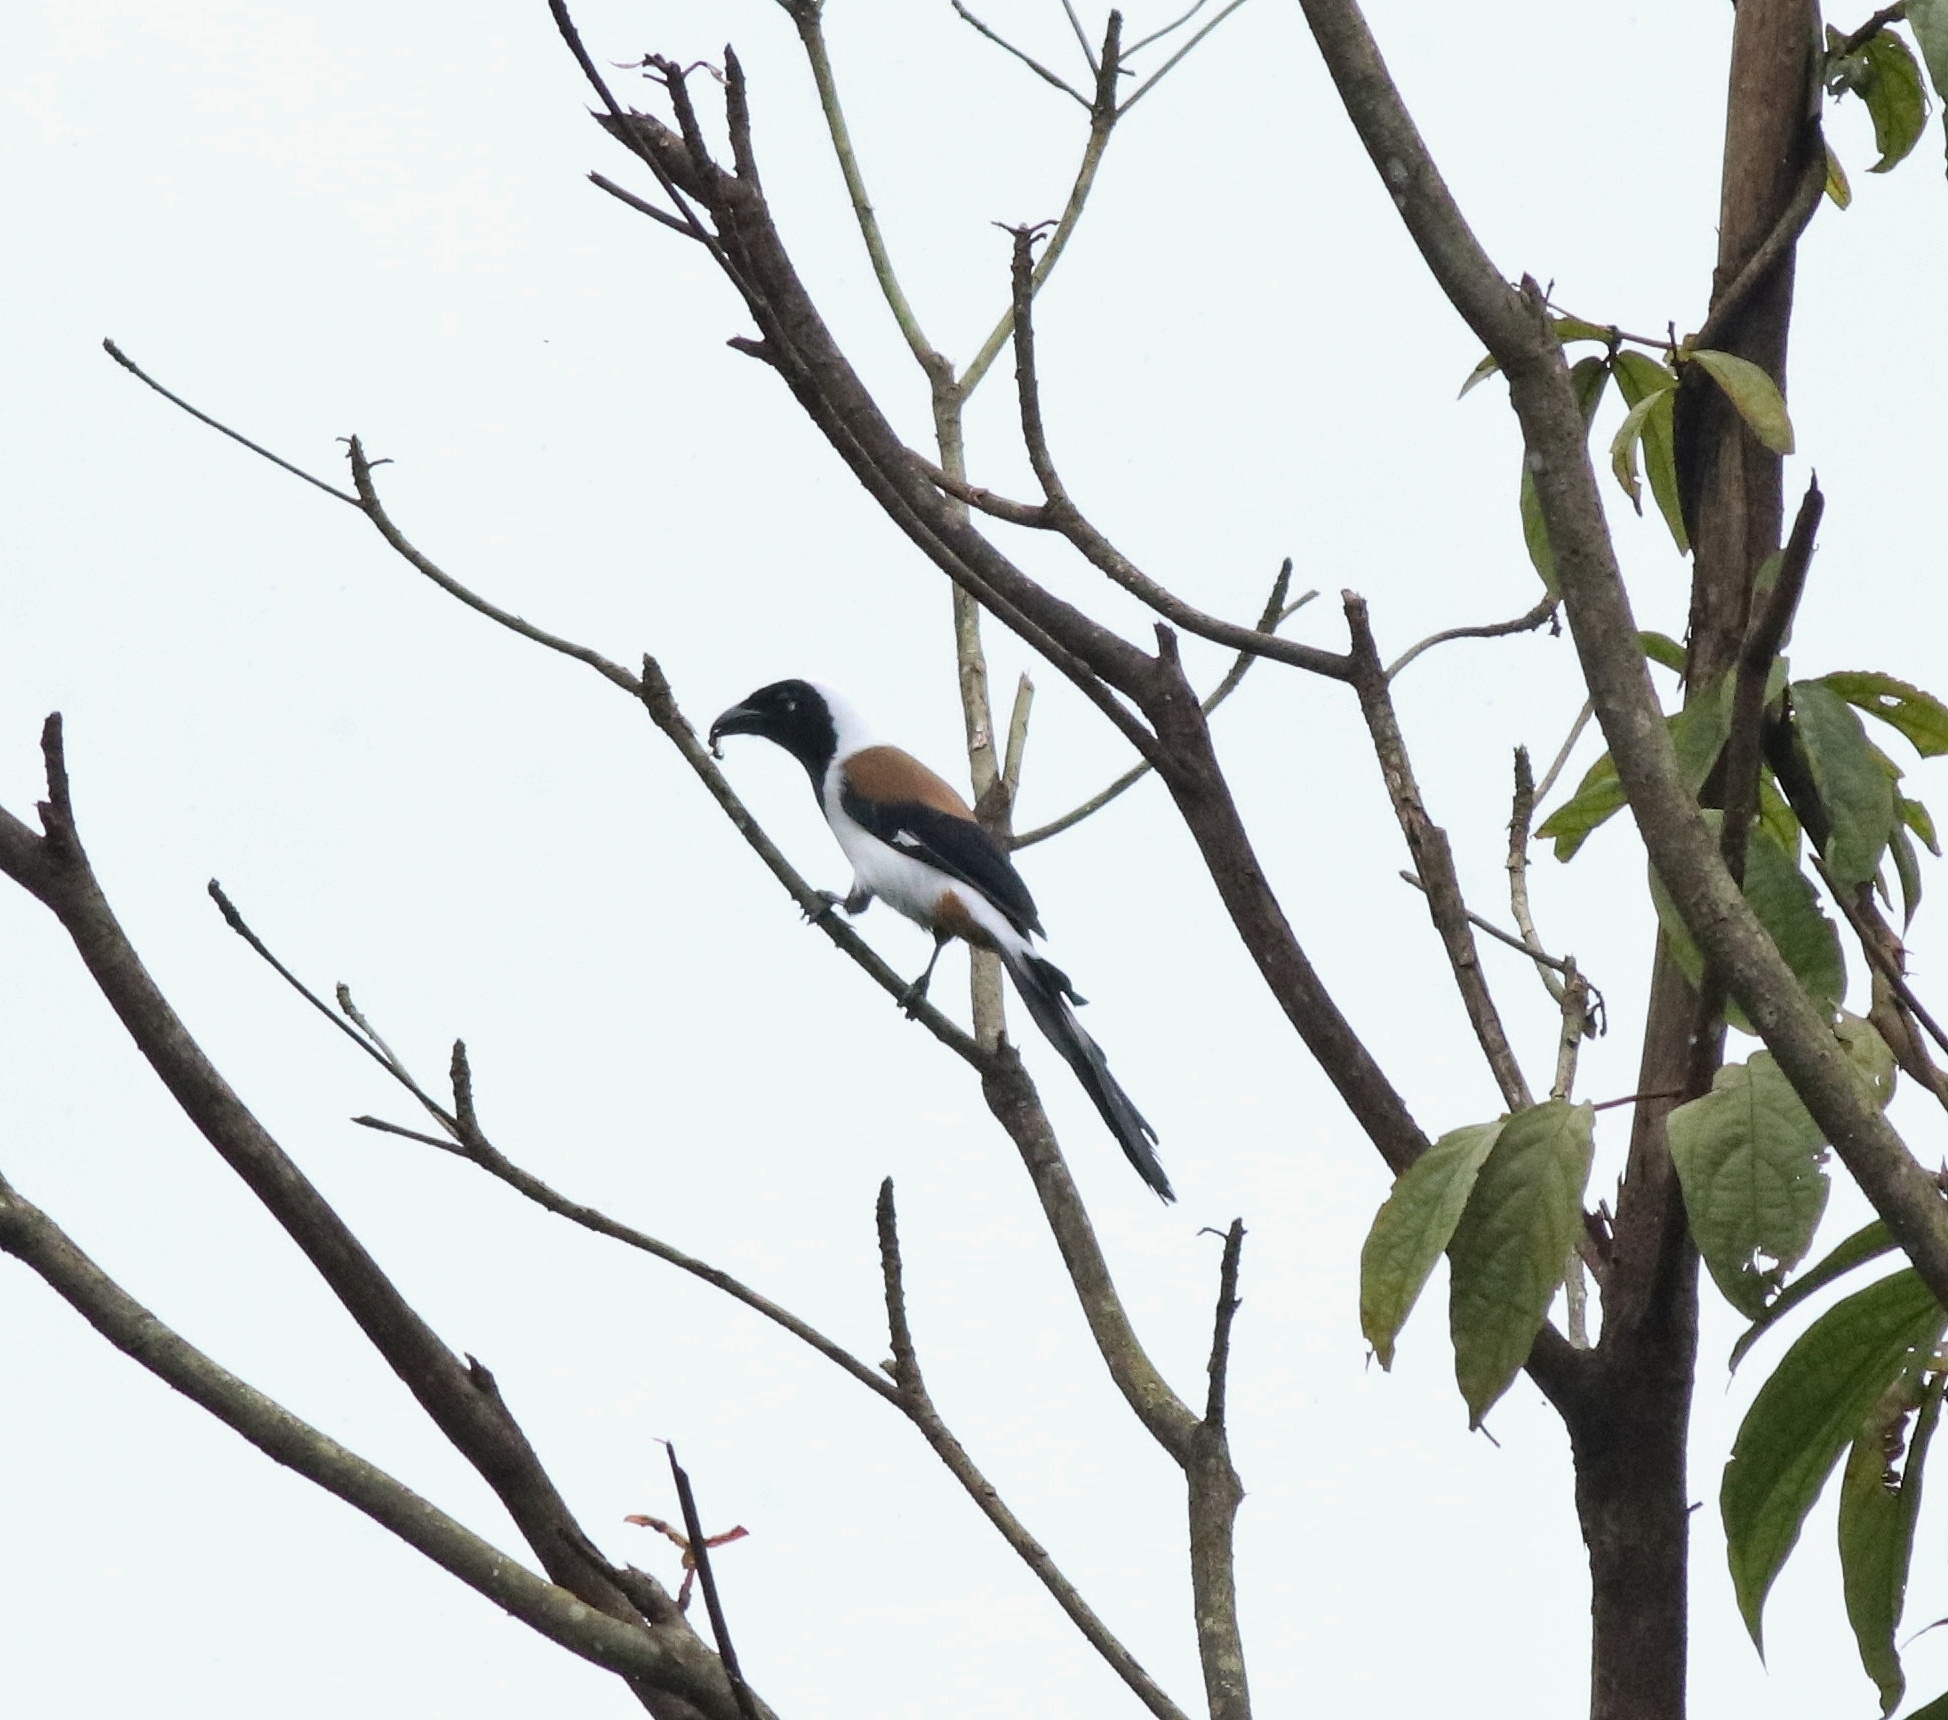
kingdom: Animalia
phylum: Chordata
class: Aves
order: Passeriformes
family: Corvidae
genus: Dendrocitta
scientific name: Dendrocitta leucogastra
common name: White-bellied treepie
